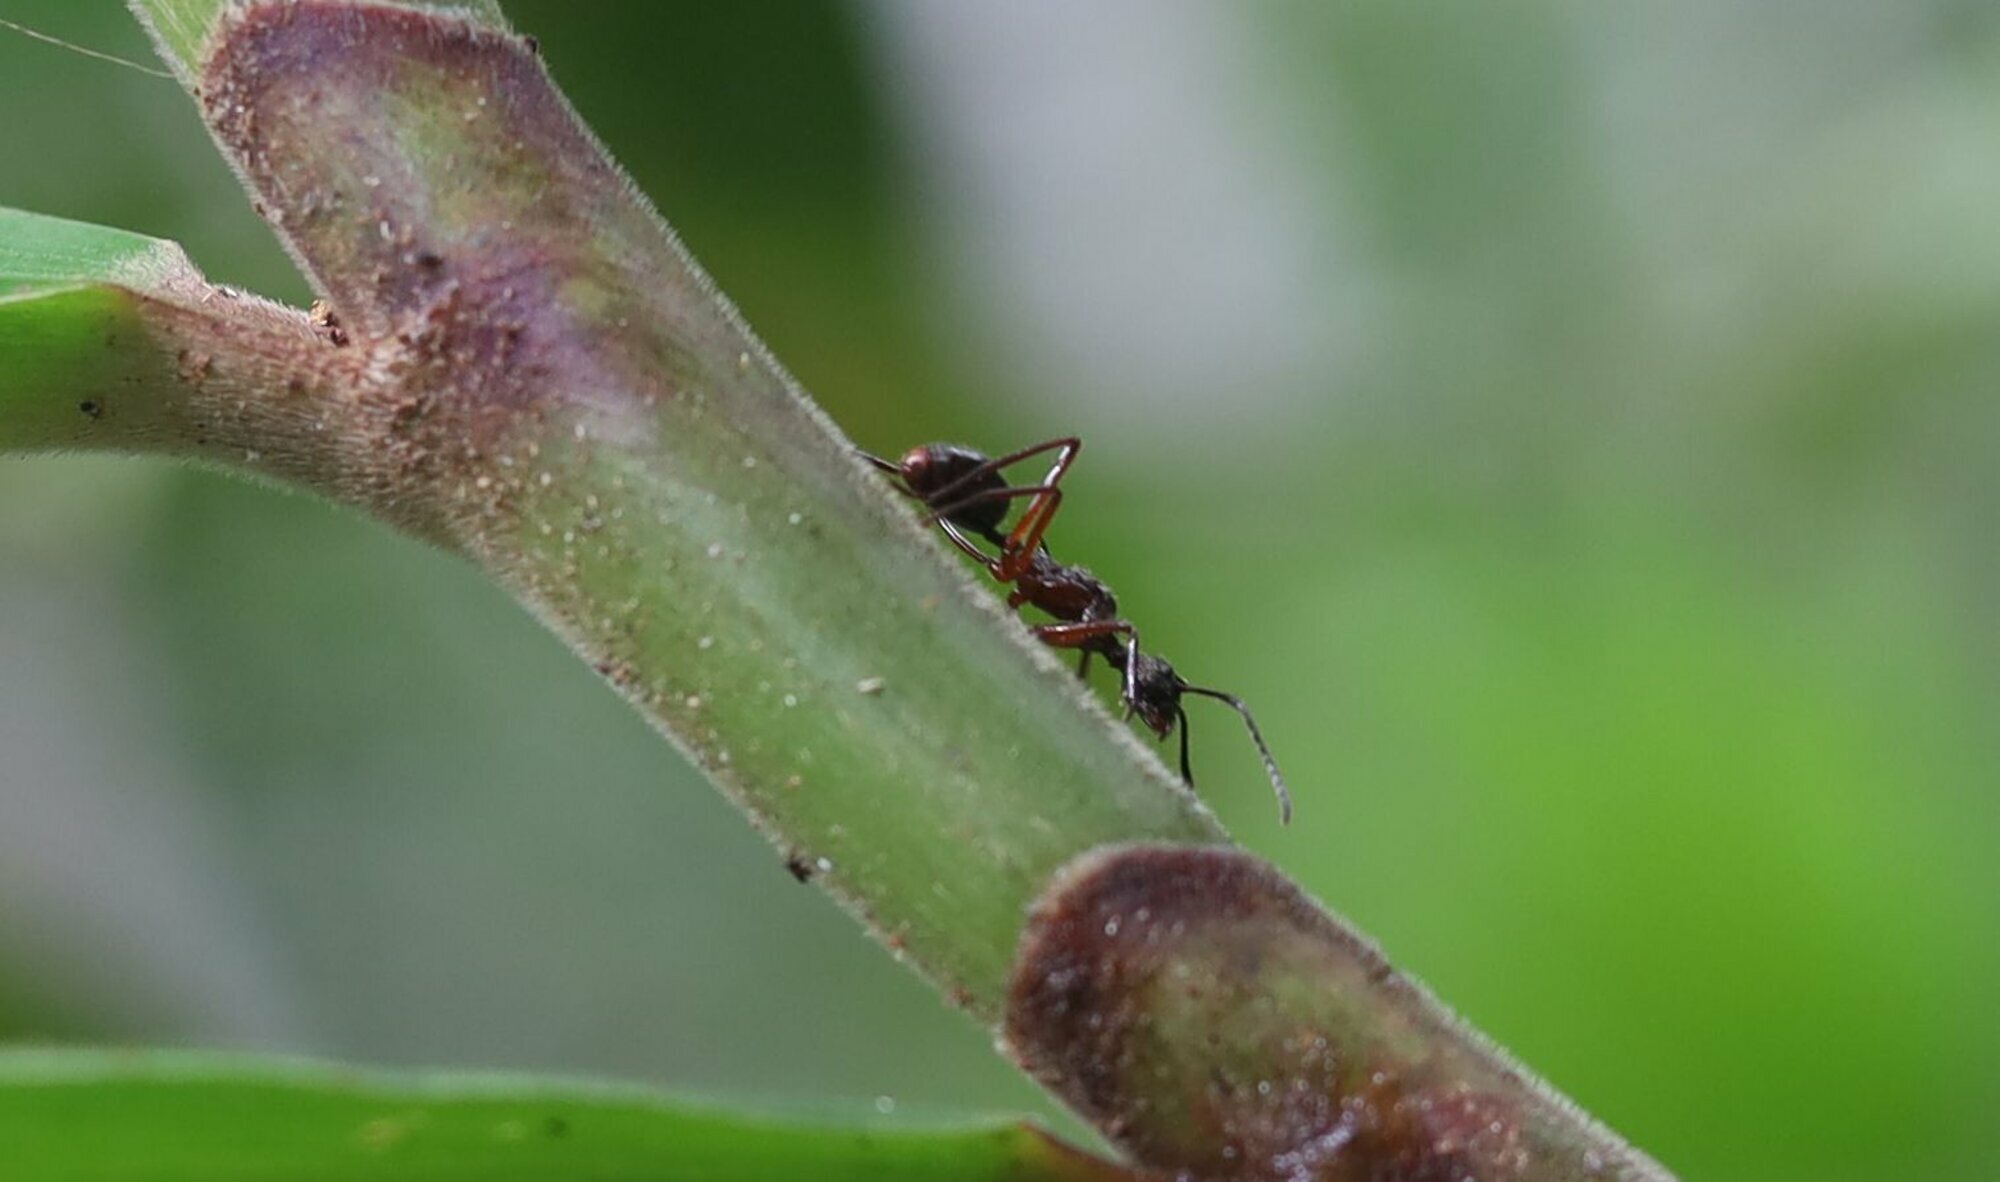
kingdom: Animalia
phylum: Arthropoda
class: Insecta
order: Hymenoptera
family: Formicidae
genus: Dolichoderus
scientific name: Dolichoderus attelaboides
